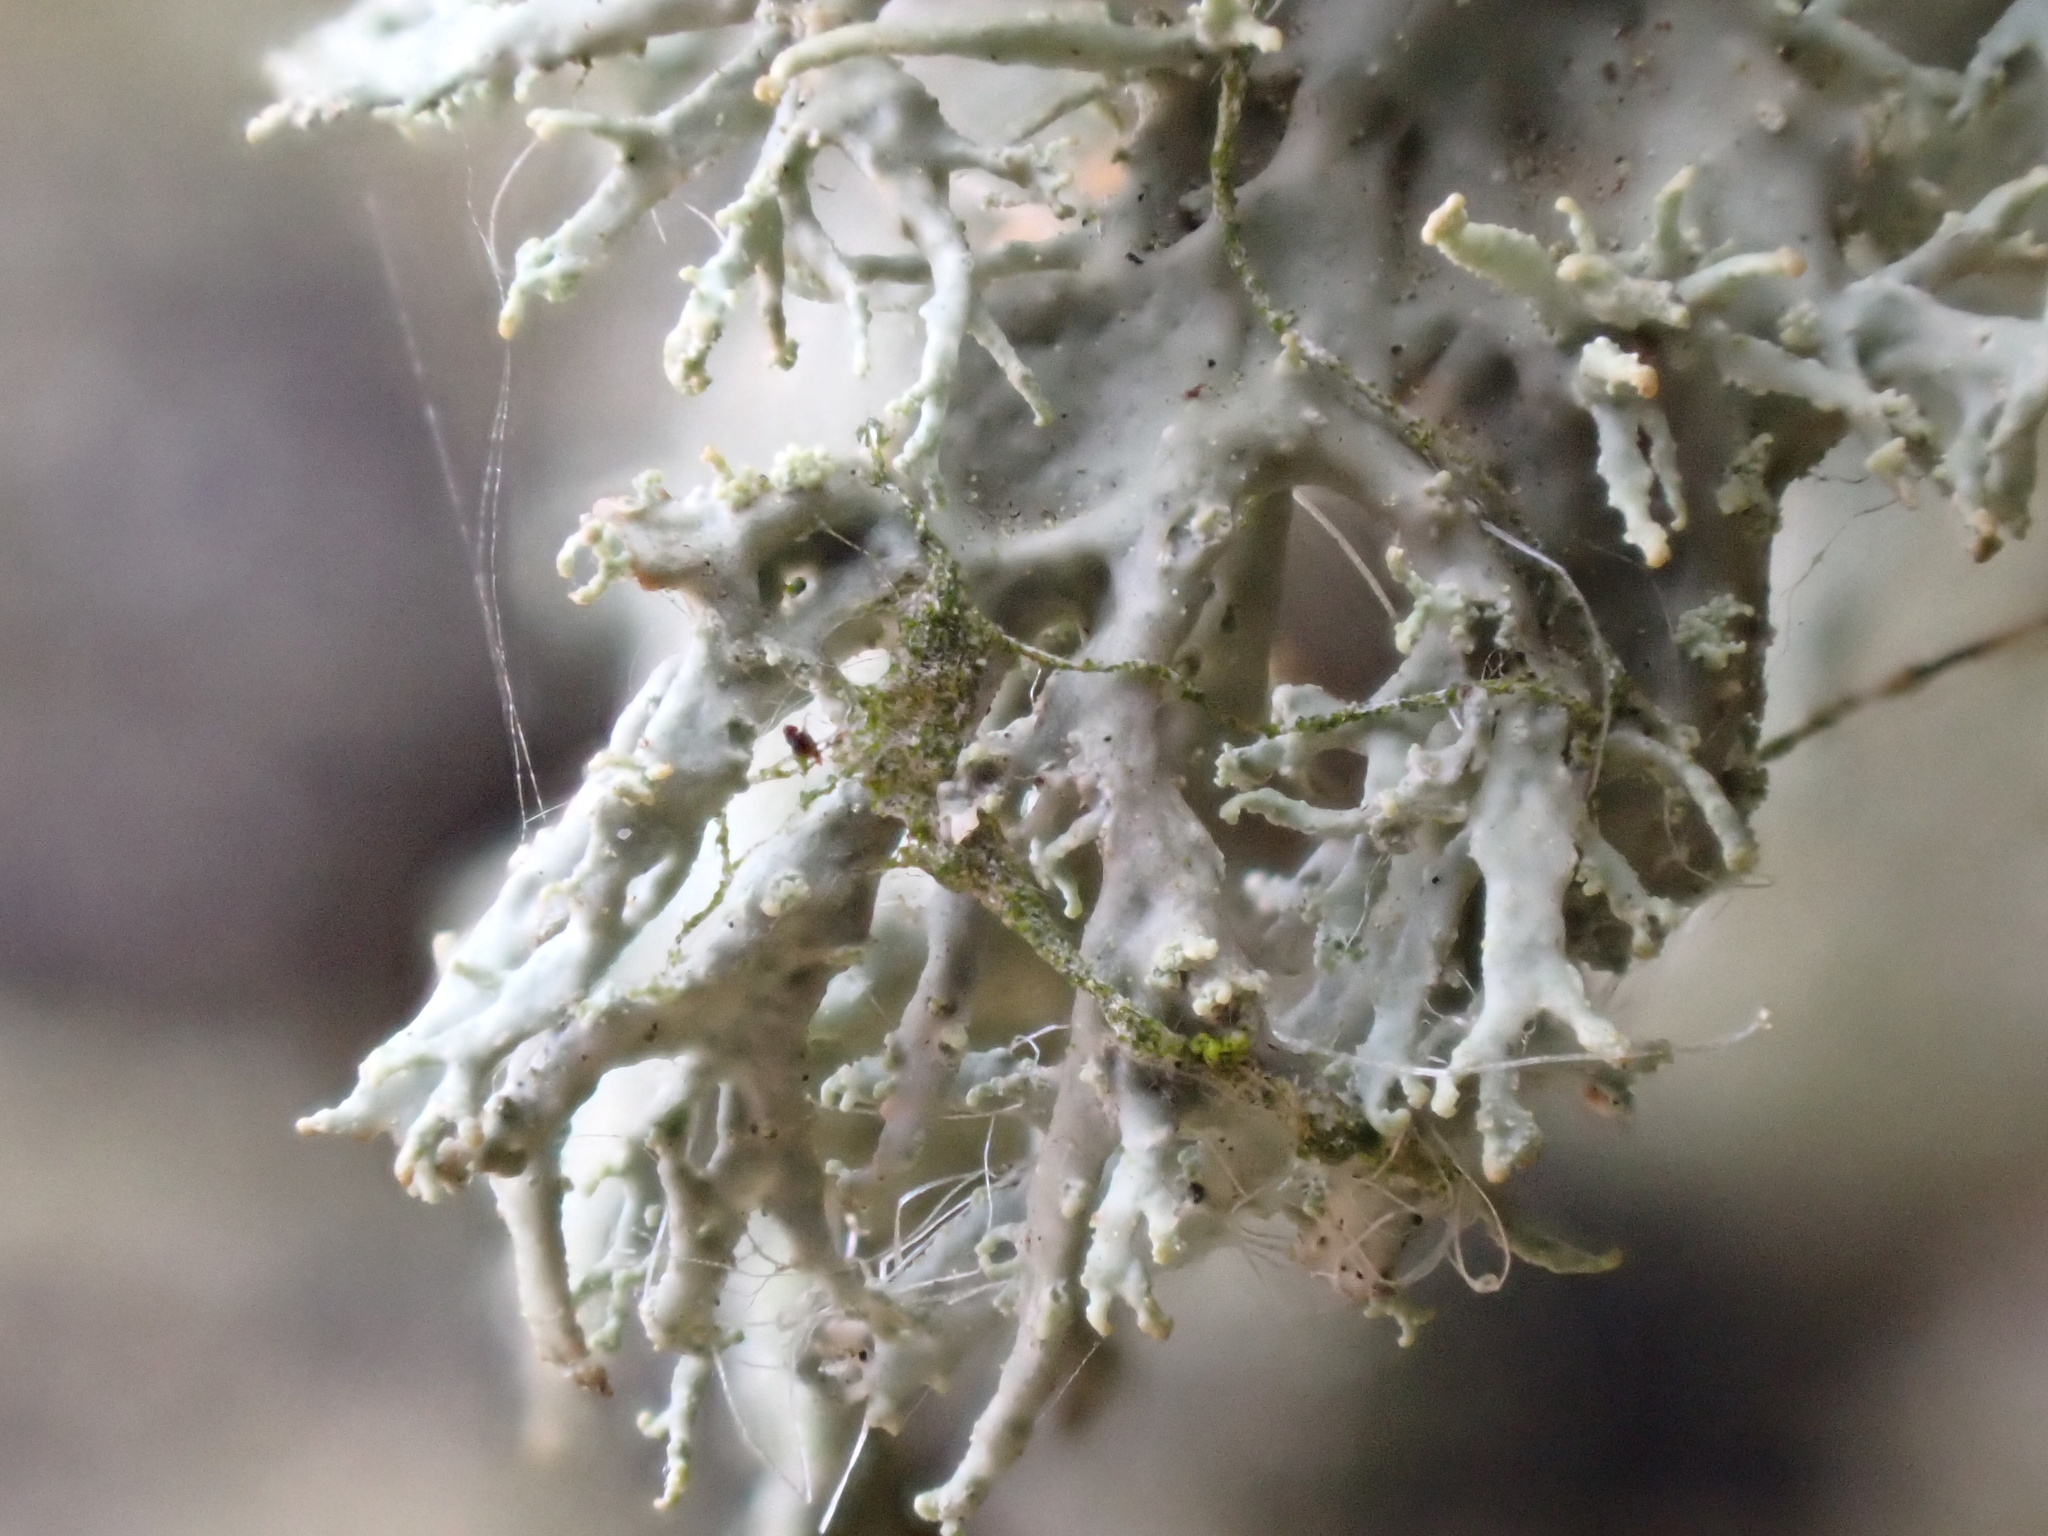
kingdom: Fungi
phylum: Ascomycota
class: Lecanoromycetes
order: Lecanorales
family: Ramalinaceae
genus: Ramalina
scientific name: Ramalina farinacea
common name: Farinose cartilage lichen
